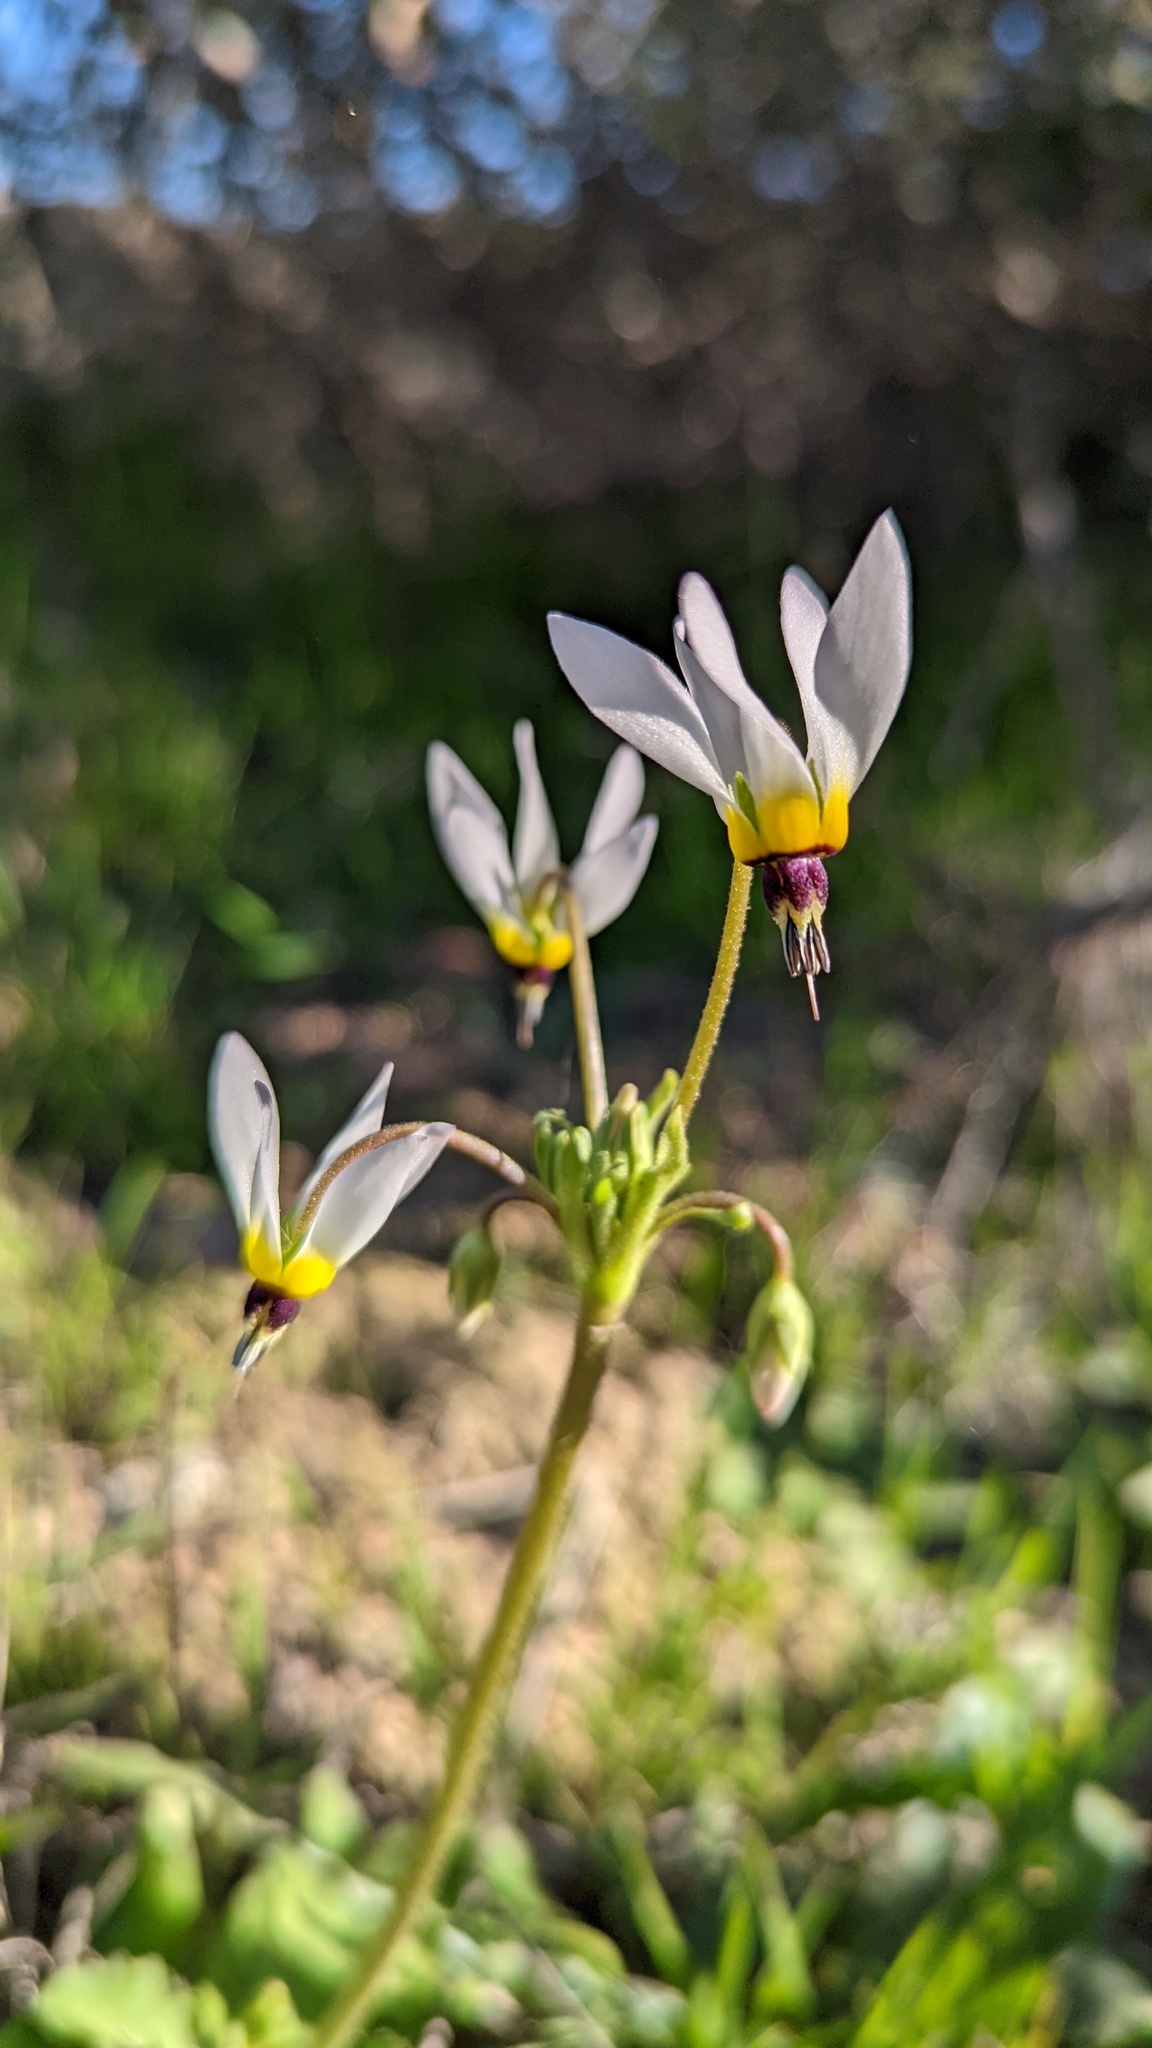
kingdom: Plantae
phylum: Tracheophyta
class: Magnoliopsida
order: Ericales
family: Primulaceae
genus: Dodecatheon
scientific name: Dodecatheon clevelandii
